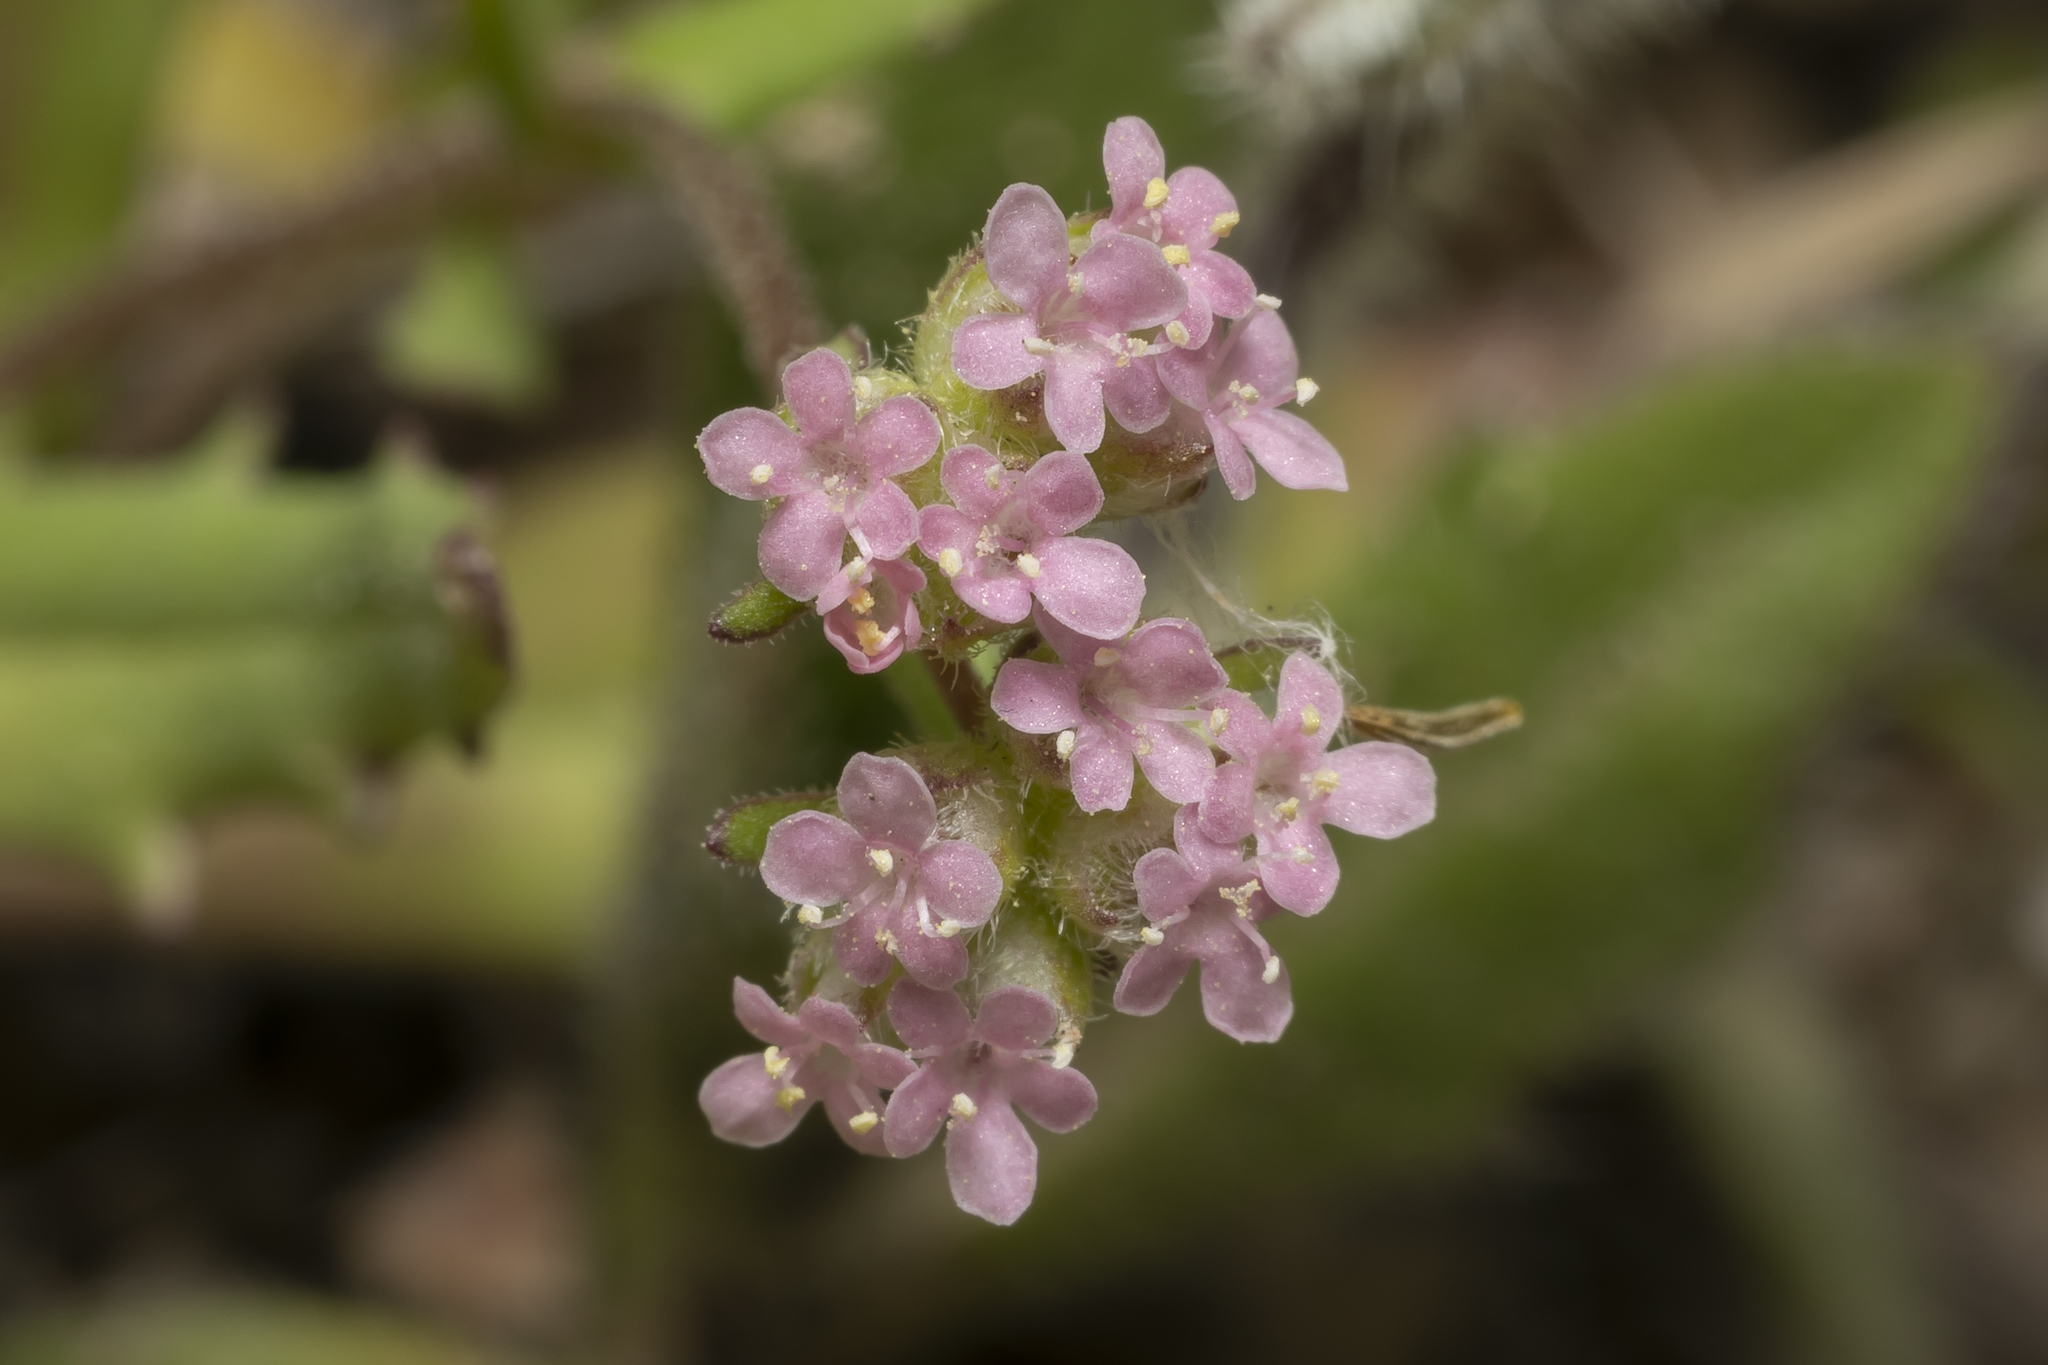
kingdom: Plantae
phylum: Tracheophyta
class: Magnoliopsida
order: Dipsacales
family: Caprifoliaceae
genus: Valerianella
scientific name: Valerianella vesicaria
